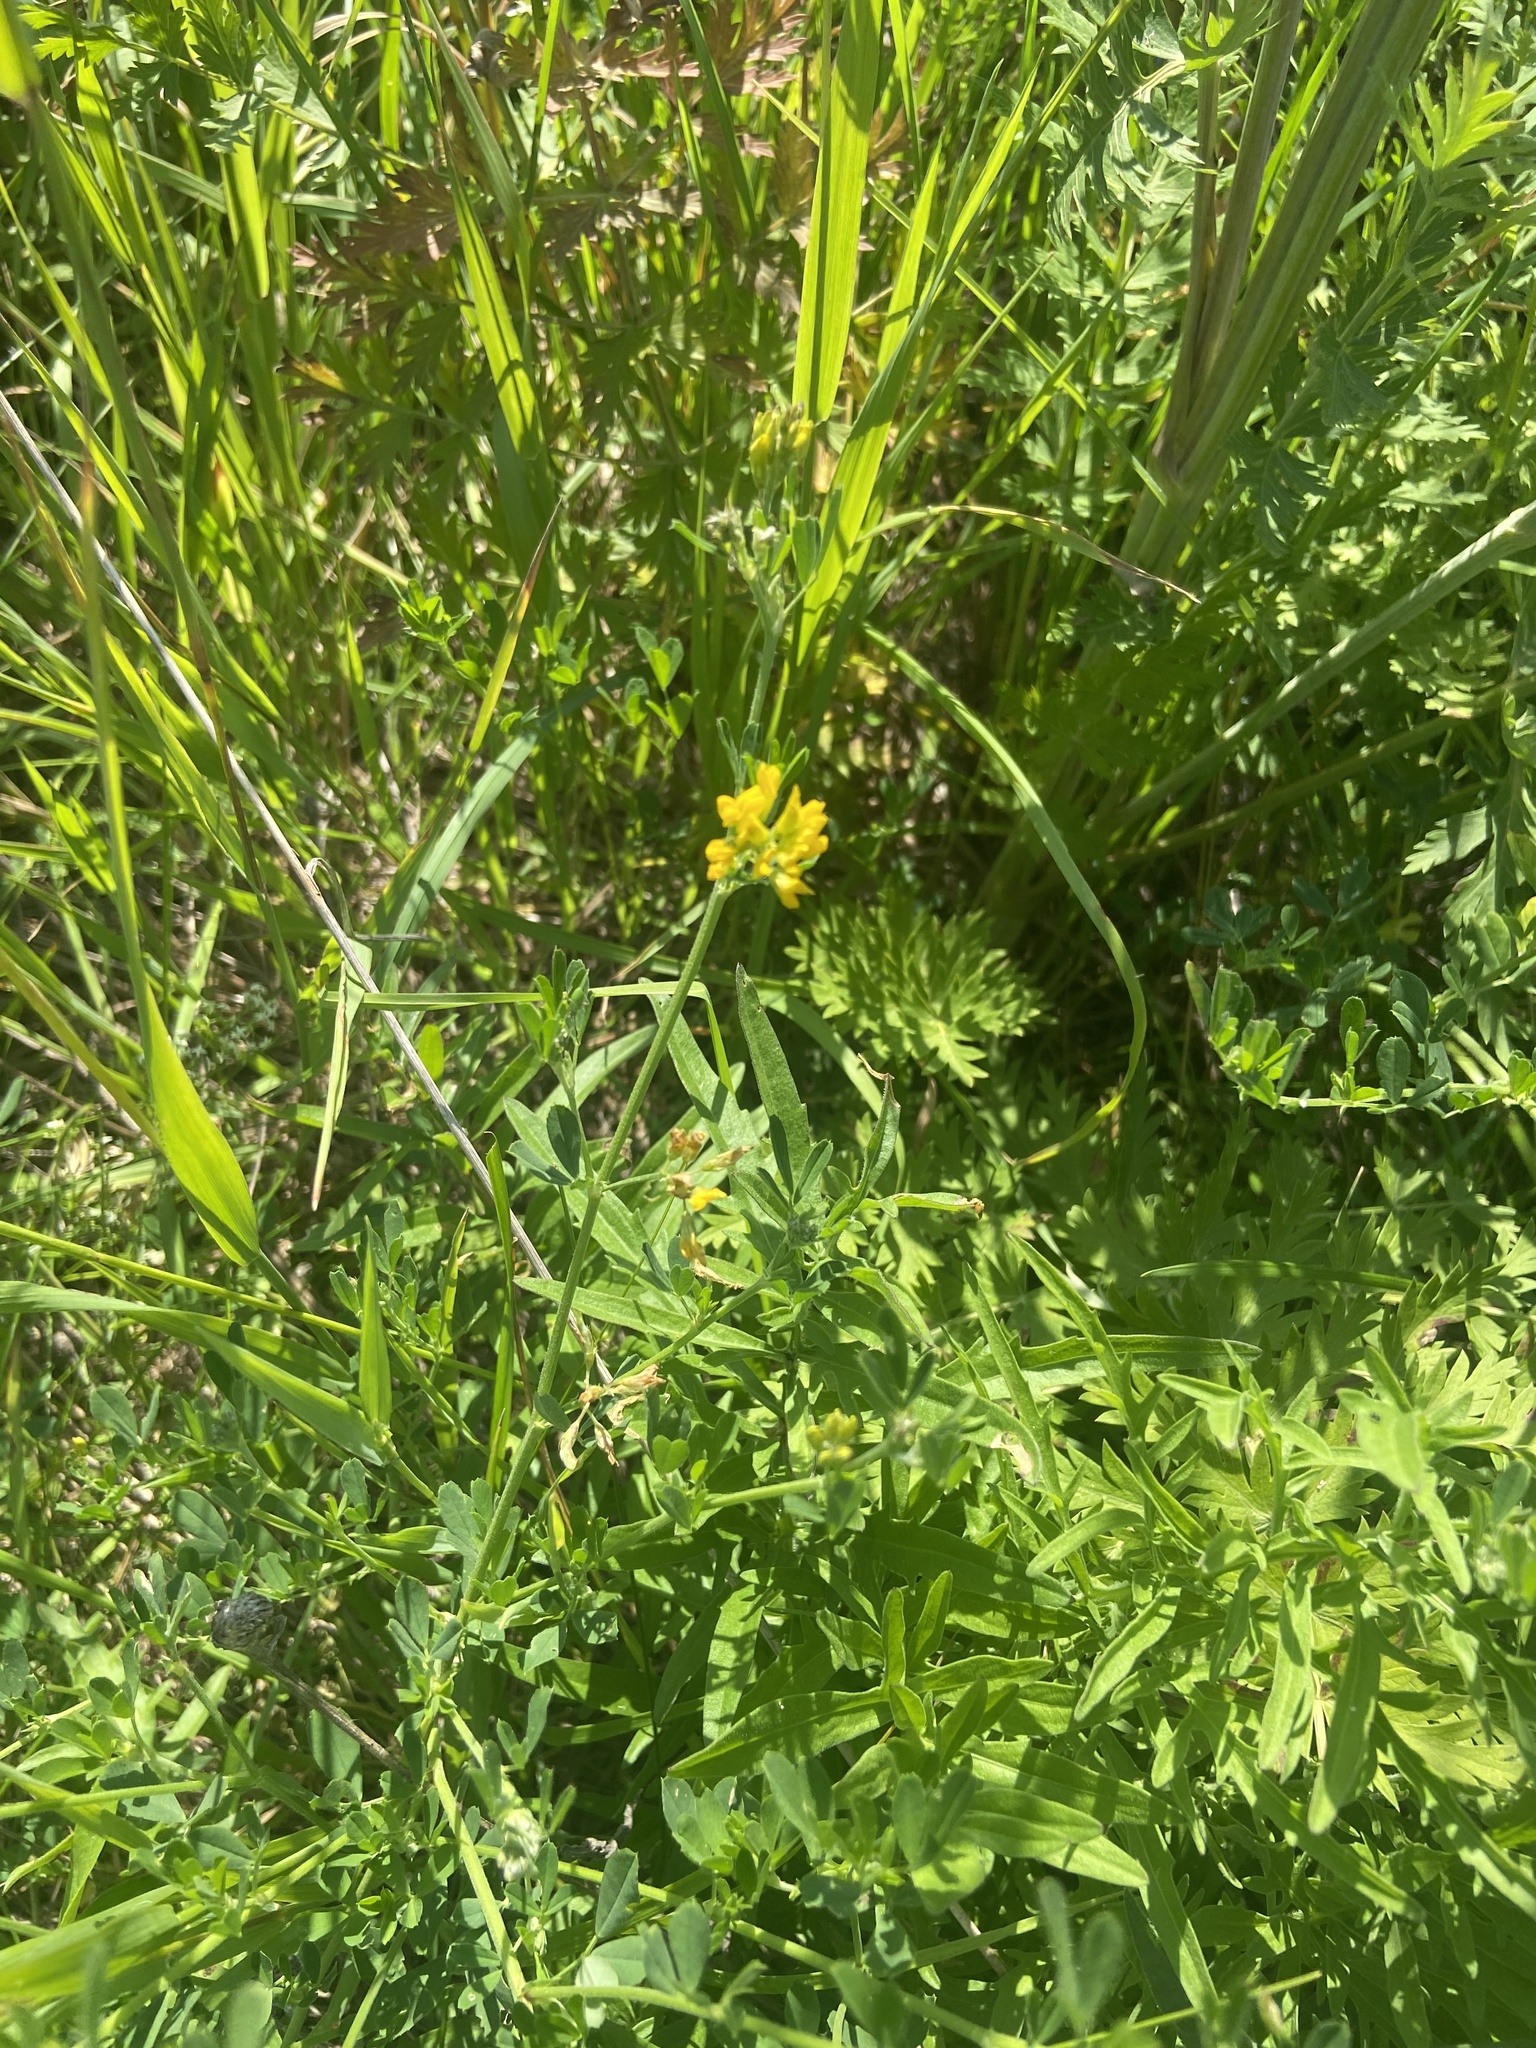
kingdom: Plantae
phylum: Tracheophyta
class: Magnoliopsida
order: Fabales
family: Fabaceae
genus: Medicago
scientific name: Medicago falcata
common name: Sickle medick
